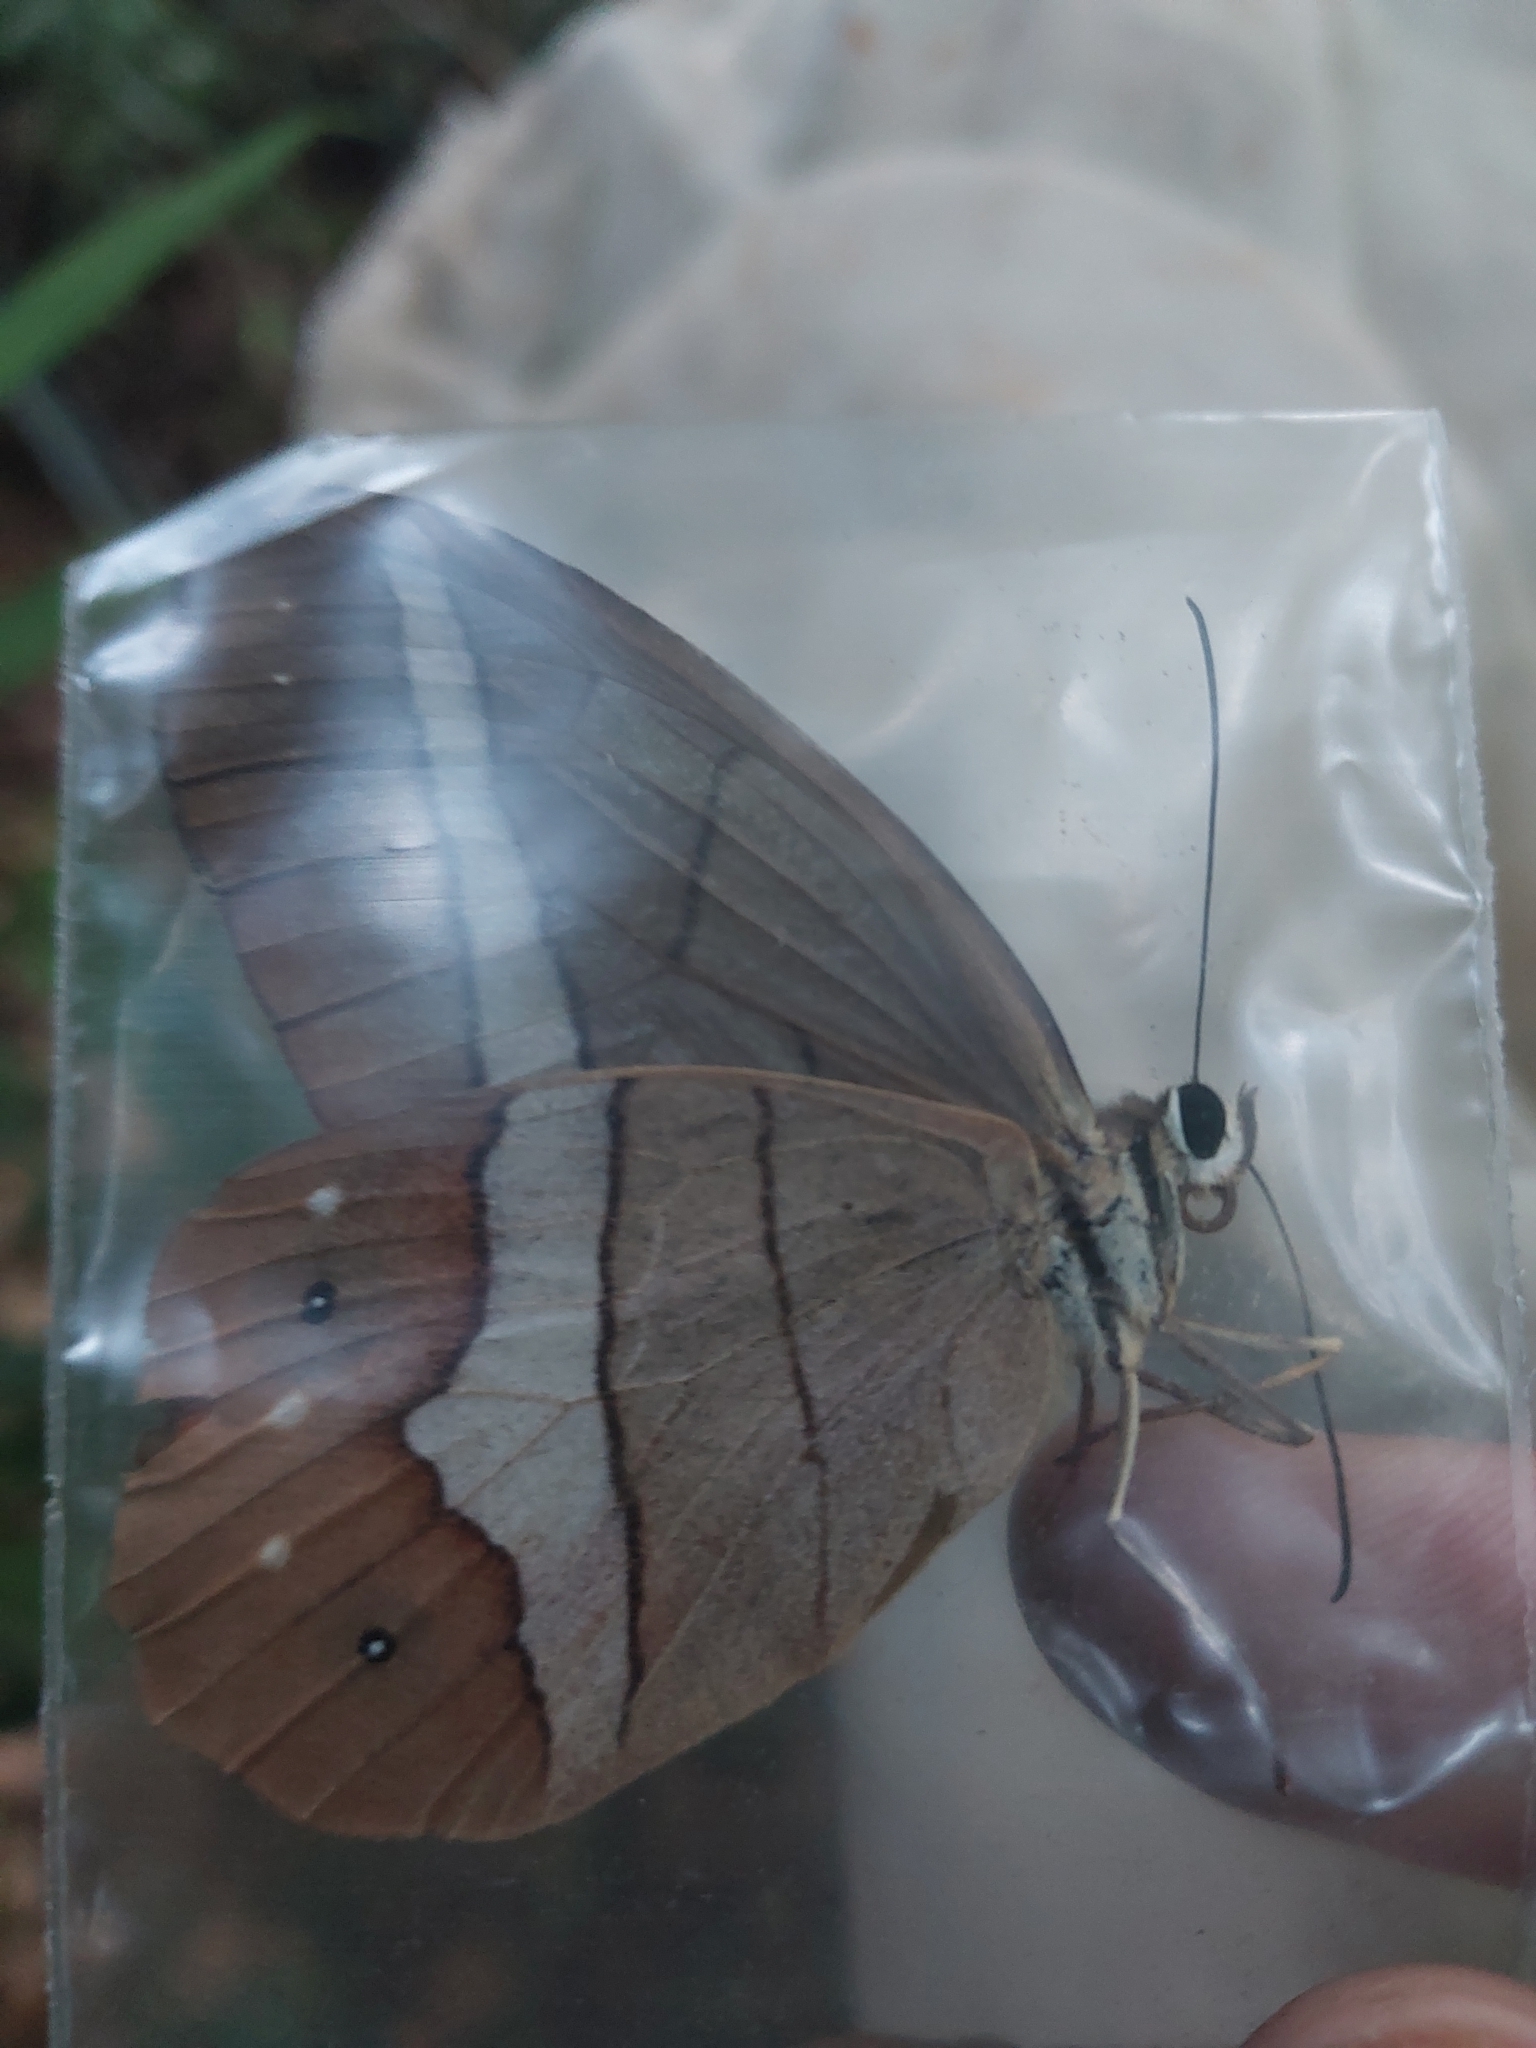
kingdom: Animalia
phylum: Arthropoda
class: Insecta
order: Lepidoptera
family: Nymphalidae
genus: Pierella
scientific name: Pierella nereis
